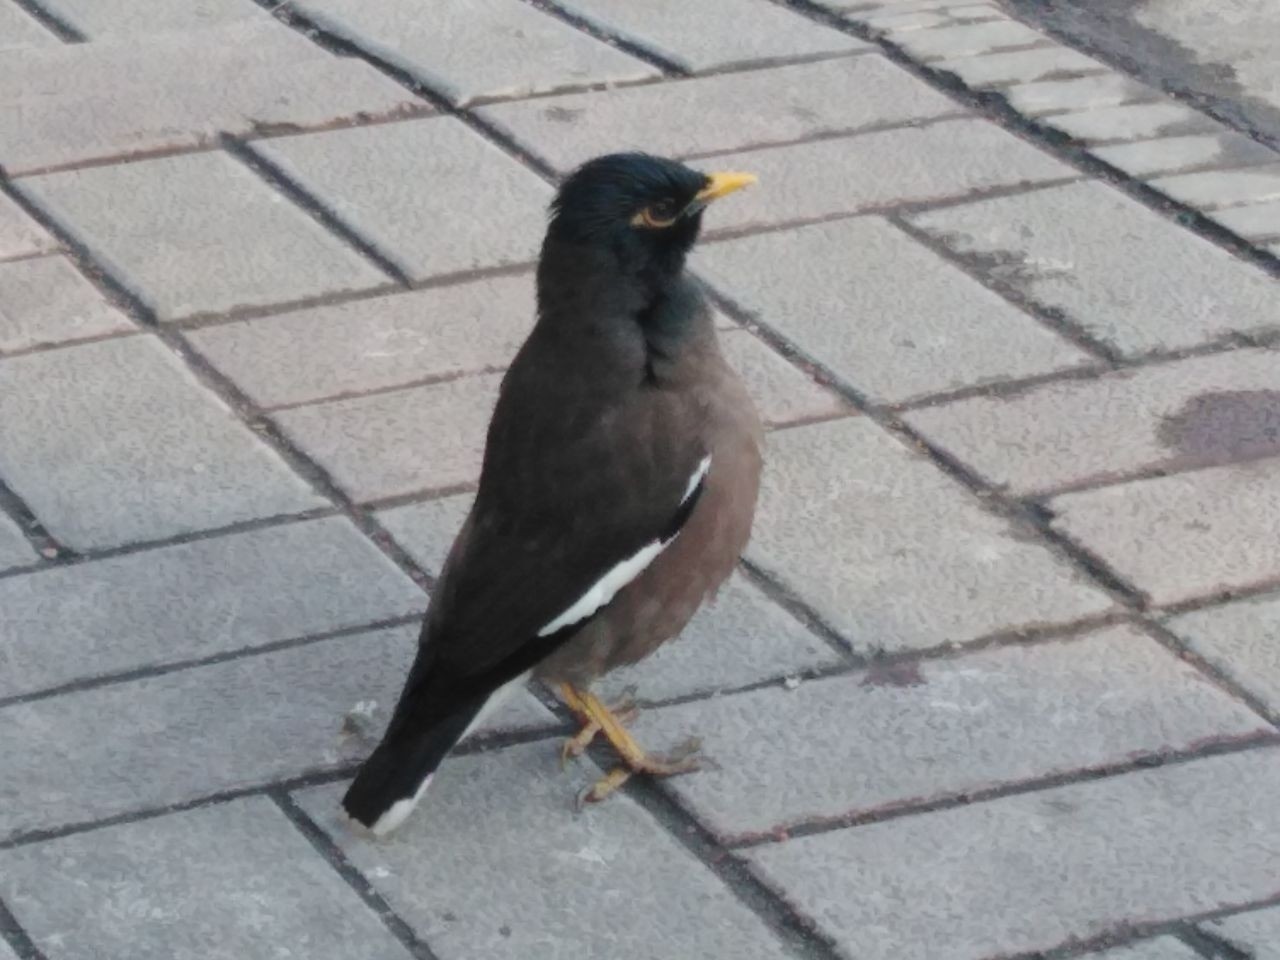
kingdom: Animalia
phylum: Chordata
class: Aves
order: Passeriformes
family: Sturnidae
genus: Acridotheres
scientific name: Acridotheres tristis
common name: Common myna
